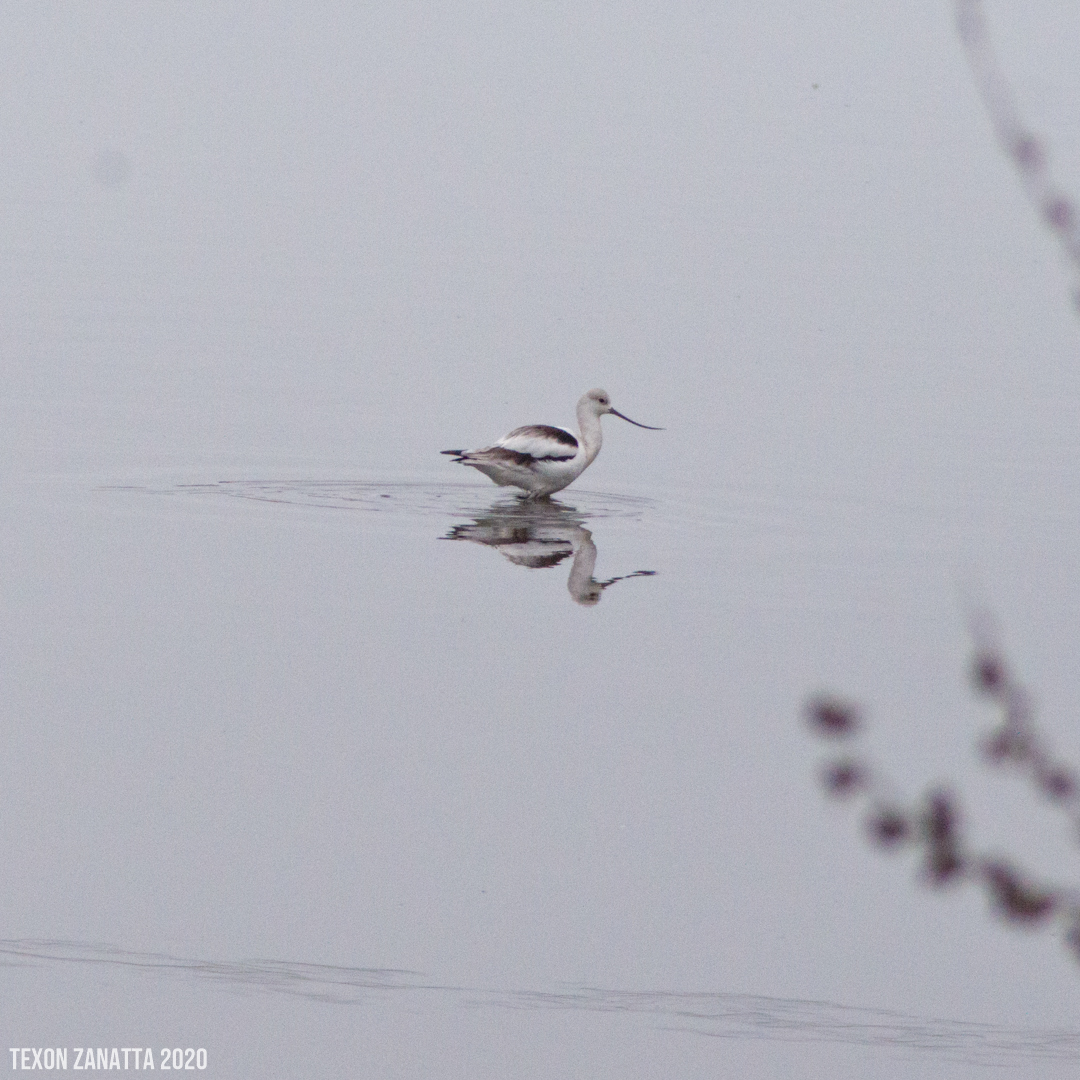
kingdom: Animalia
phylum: Chordata
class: Aves
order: Charadriiformes
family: Recurvirostridae
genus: Recurvirostra
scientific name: Recurvirostra americana
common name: American avocet
